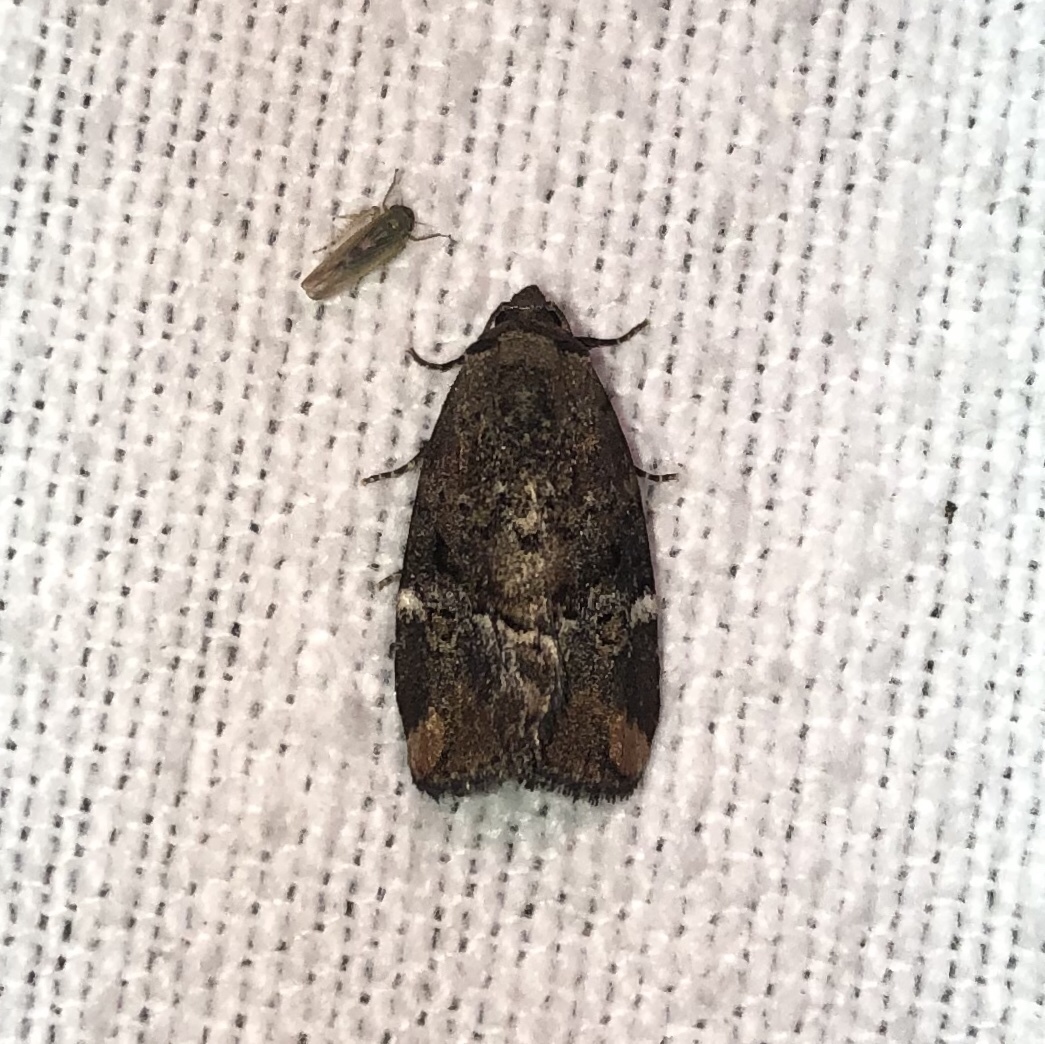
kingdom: Animalia
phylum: Arthropoda
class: Insecta
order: Lepidoptera
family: Noctuidae
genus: Elaphria
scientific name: Elaphria versicolor
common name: Fir harlequin
